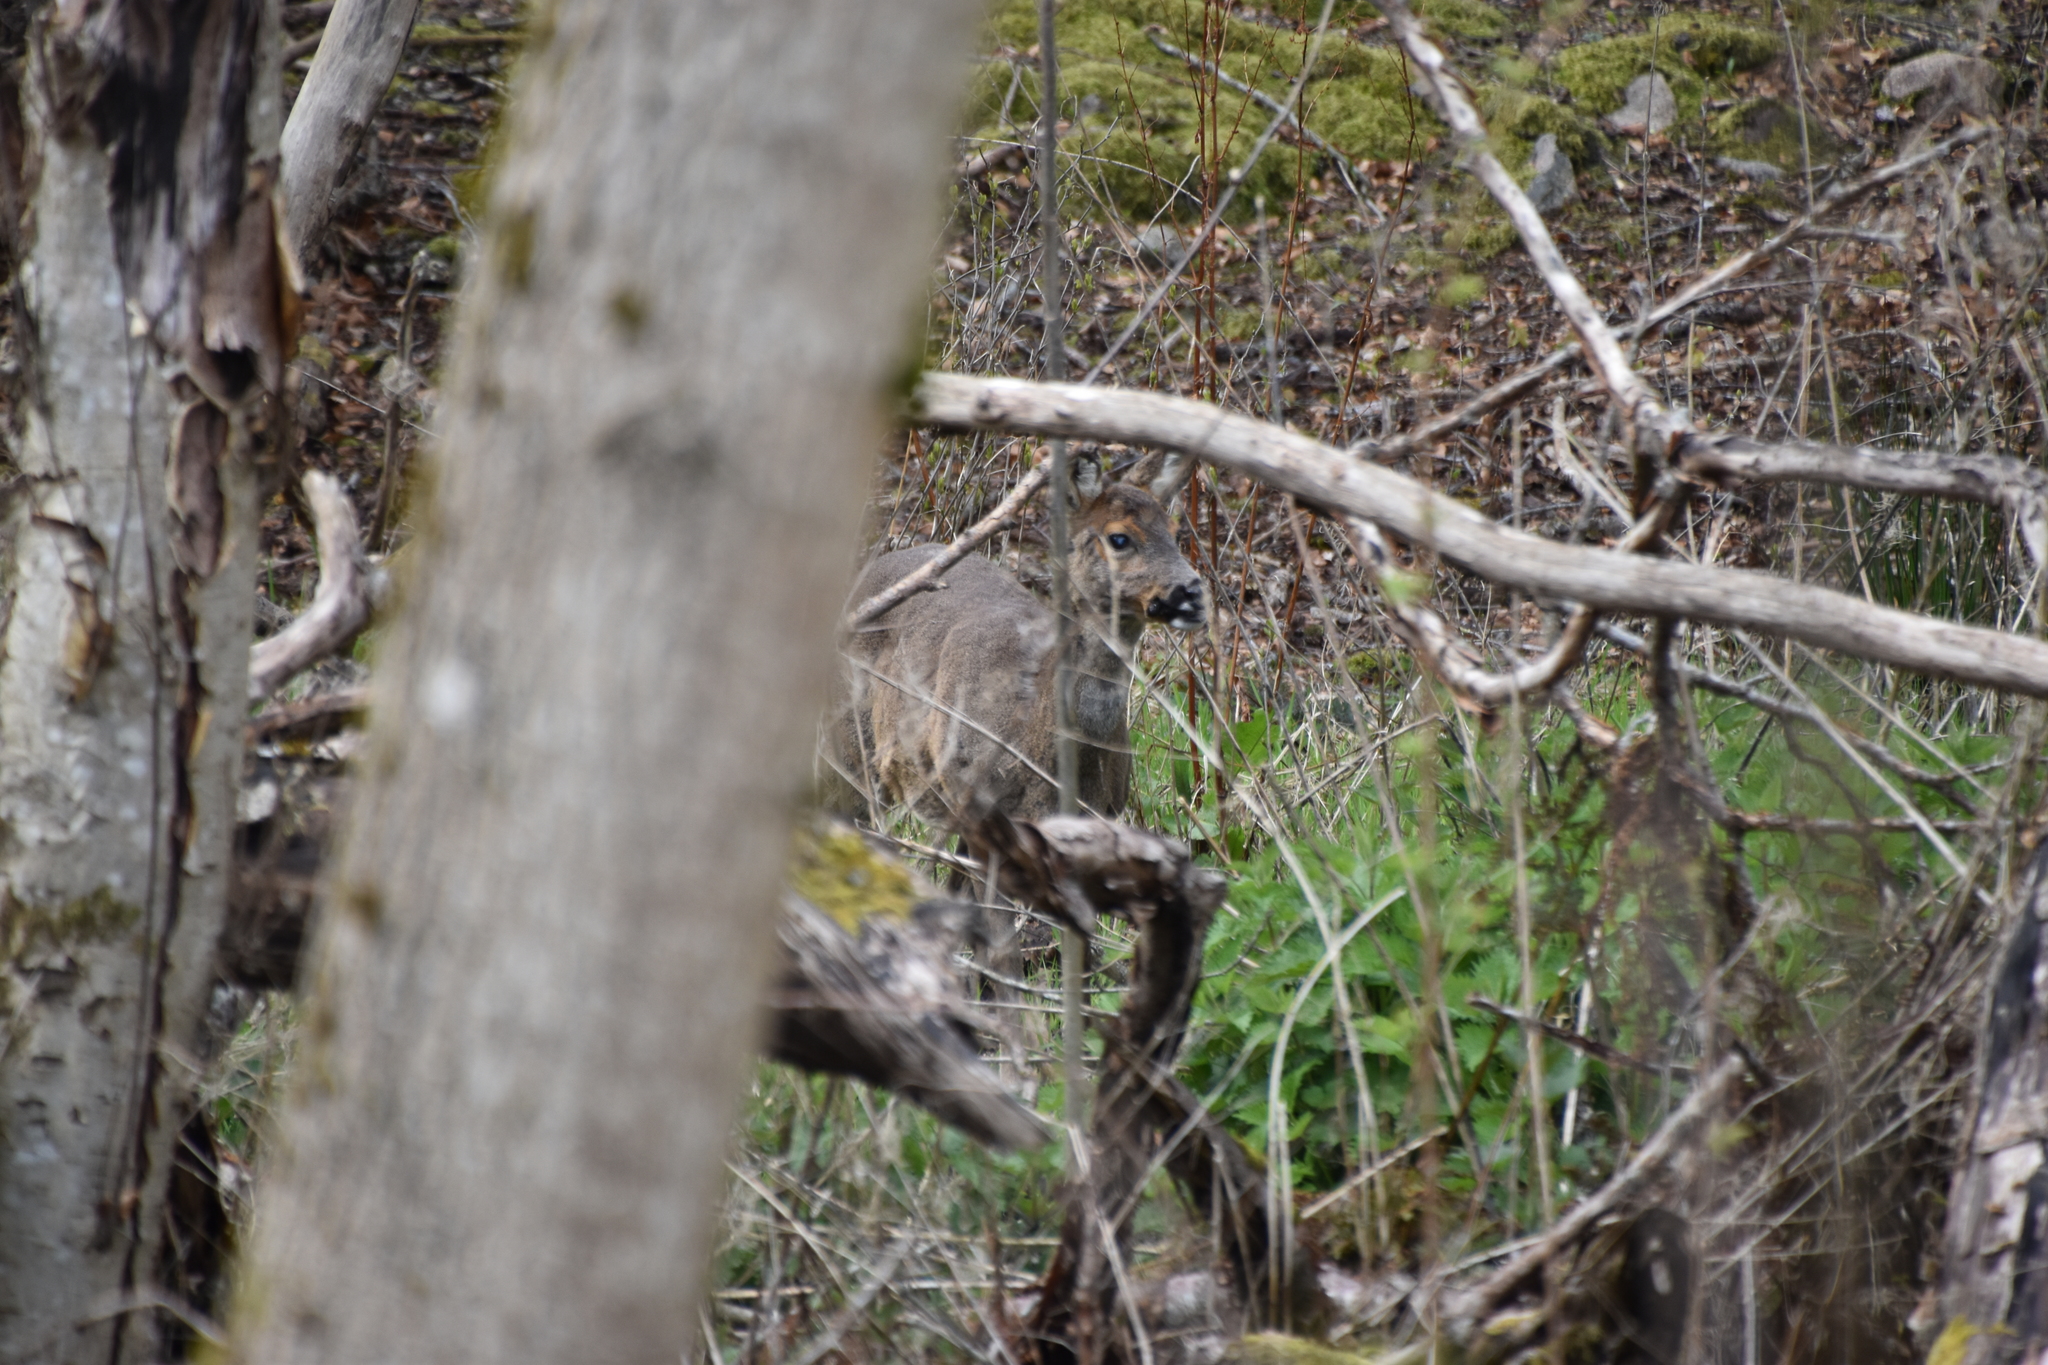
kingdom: Animalia
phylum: Chordata
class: Mammalia
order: Artiodactyla
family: Cervidae
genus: Capreolus
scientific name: Capreolus capreolus
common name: Western roe deer
